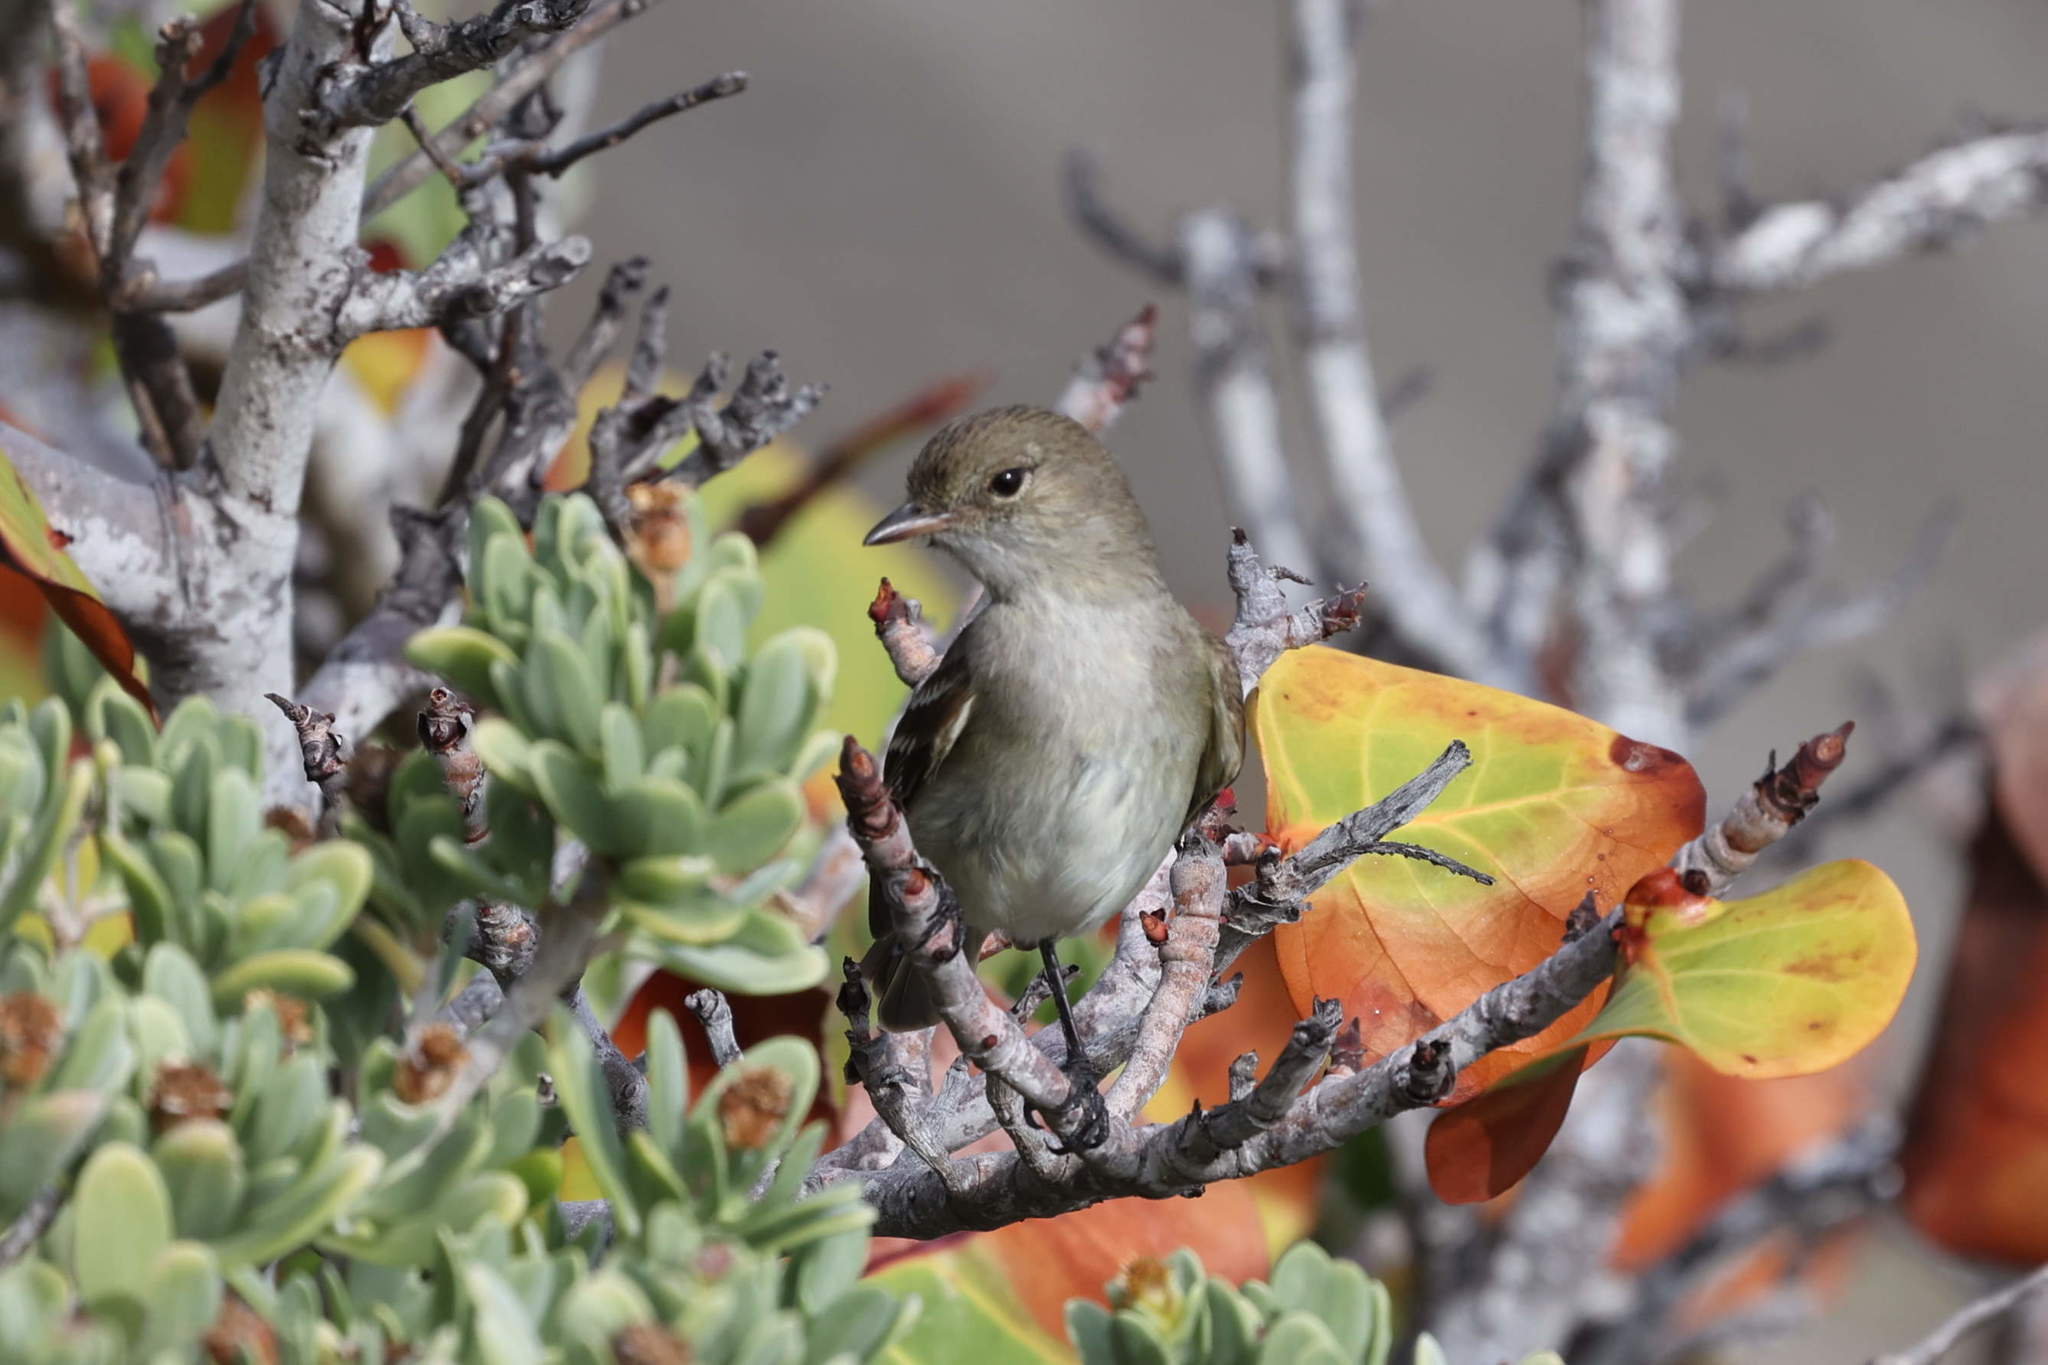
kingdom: Animalia
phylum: Chordata
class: Aves
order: Passeriformes
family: Tyrannidae
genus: Elaenia
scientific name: Elaenia martinica
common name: Caribbean elaenia
